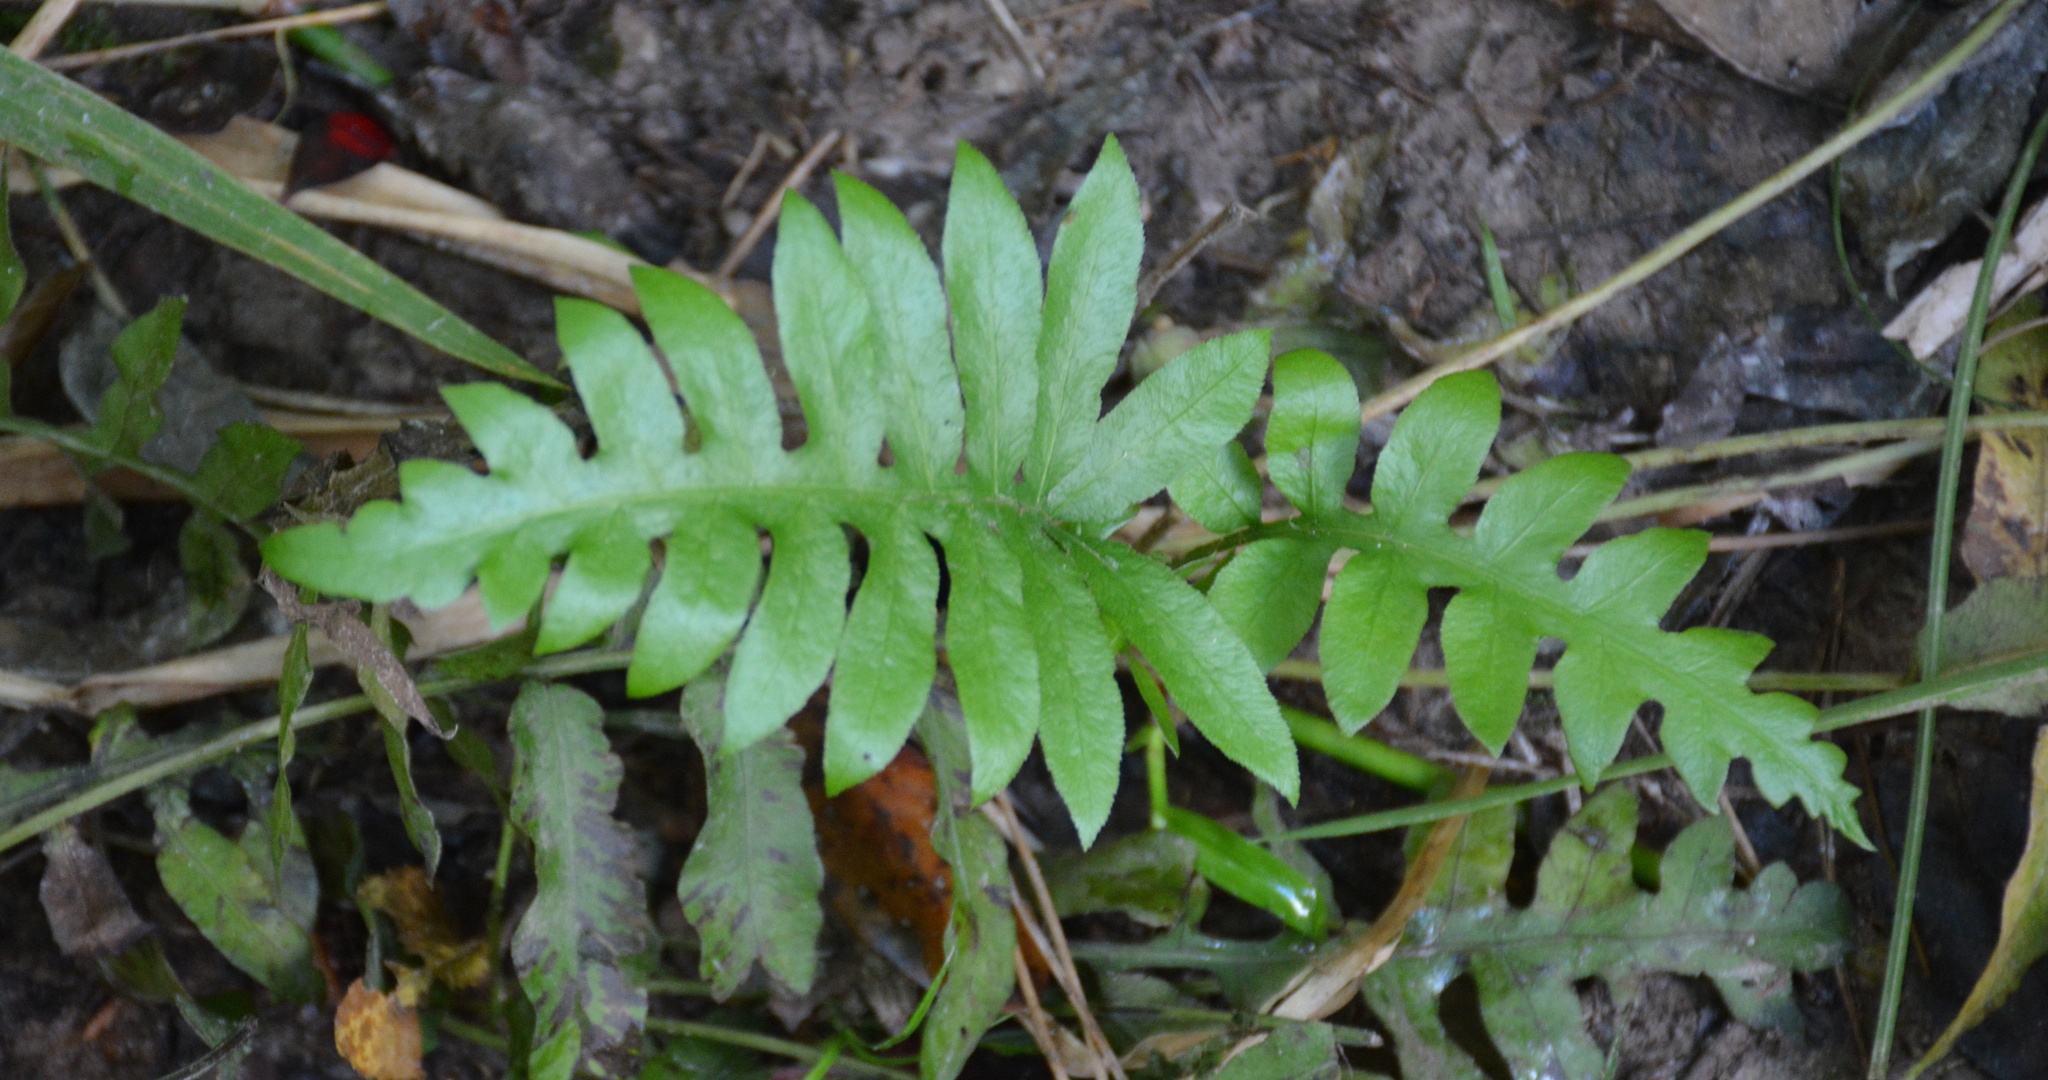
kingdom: Plantae
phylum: Tracheophyta
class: Polypodiopsida
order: Polypodiales
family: Blechnaceae
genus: Lorinseria
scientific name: Lorinseria areolata
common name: Dwarf chain fern
